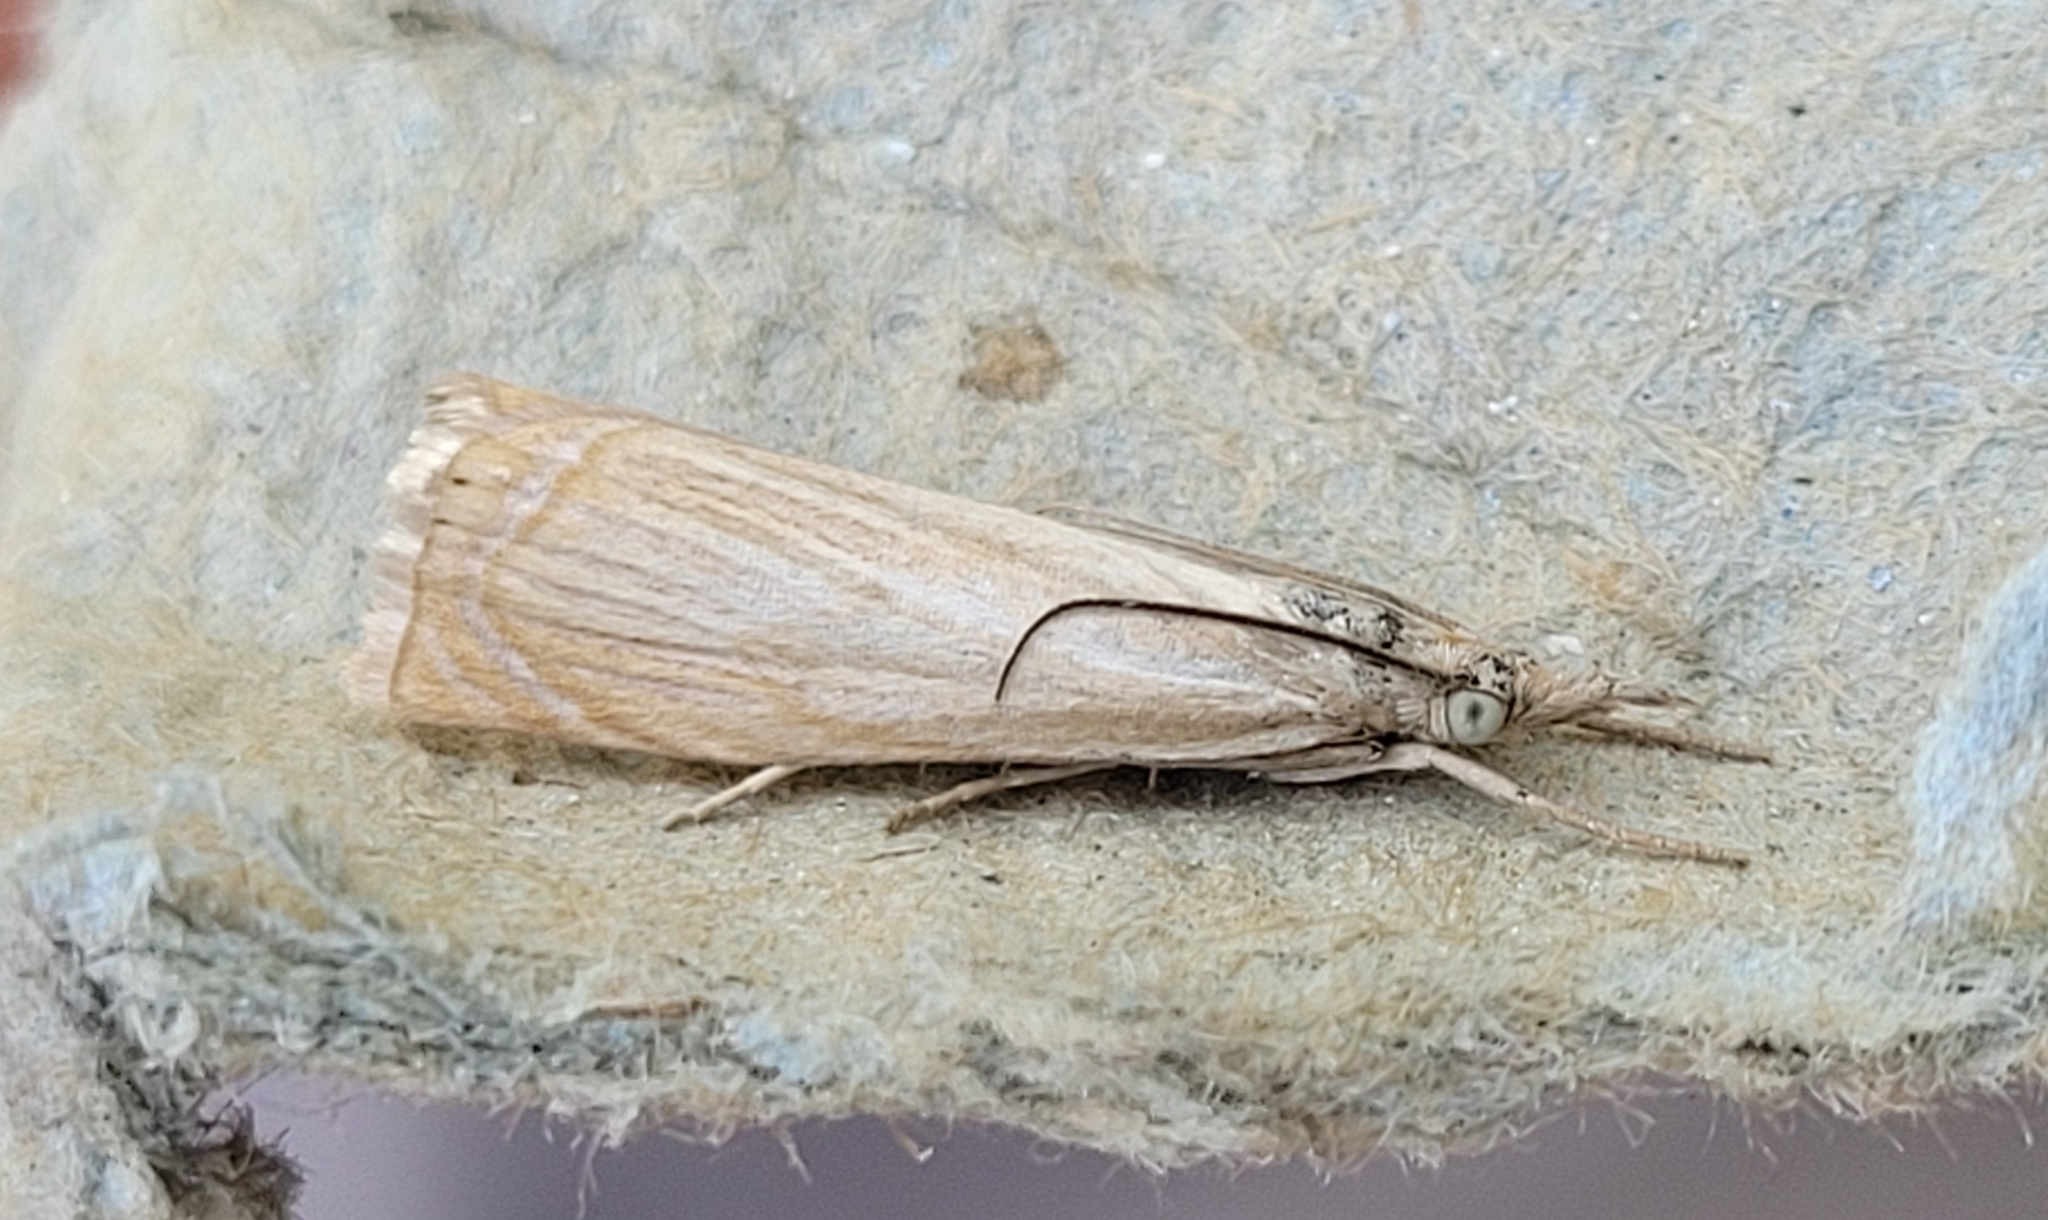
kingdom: Animalia
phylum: Arthropoda
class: Insecta
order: Lepidoptera
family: Crambidae
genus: Chrysoteuchia
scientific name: Chrysoteuchia culmella
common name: Garden grass-veneer
